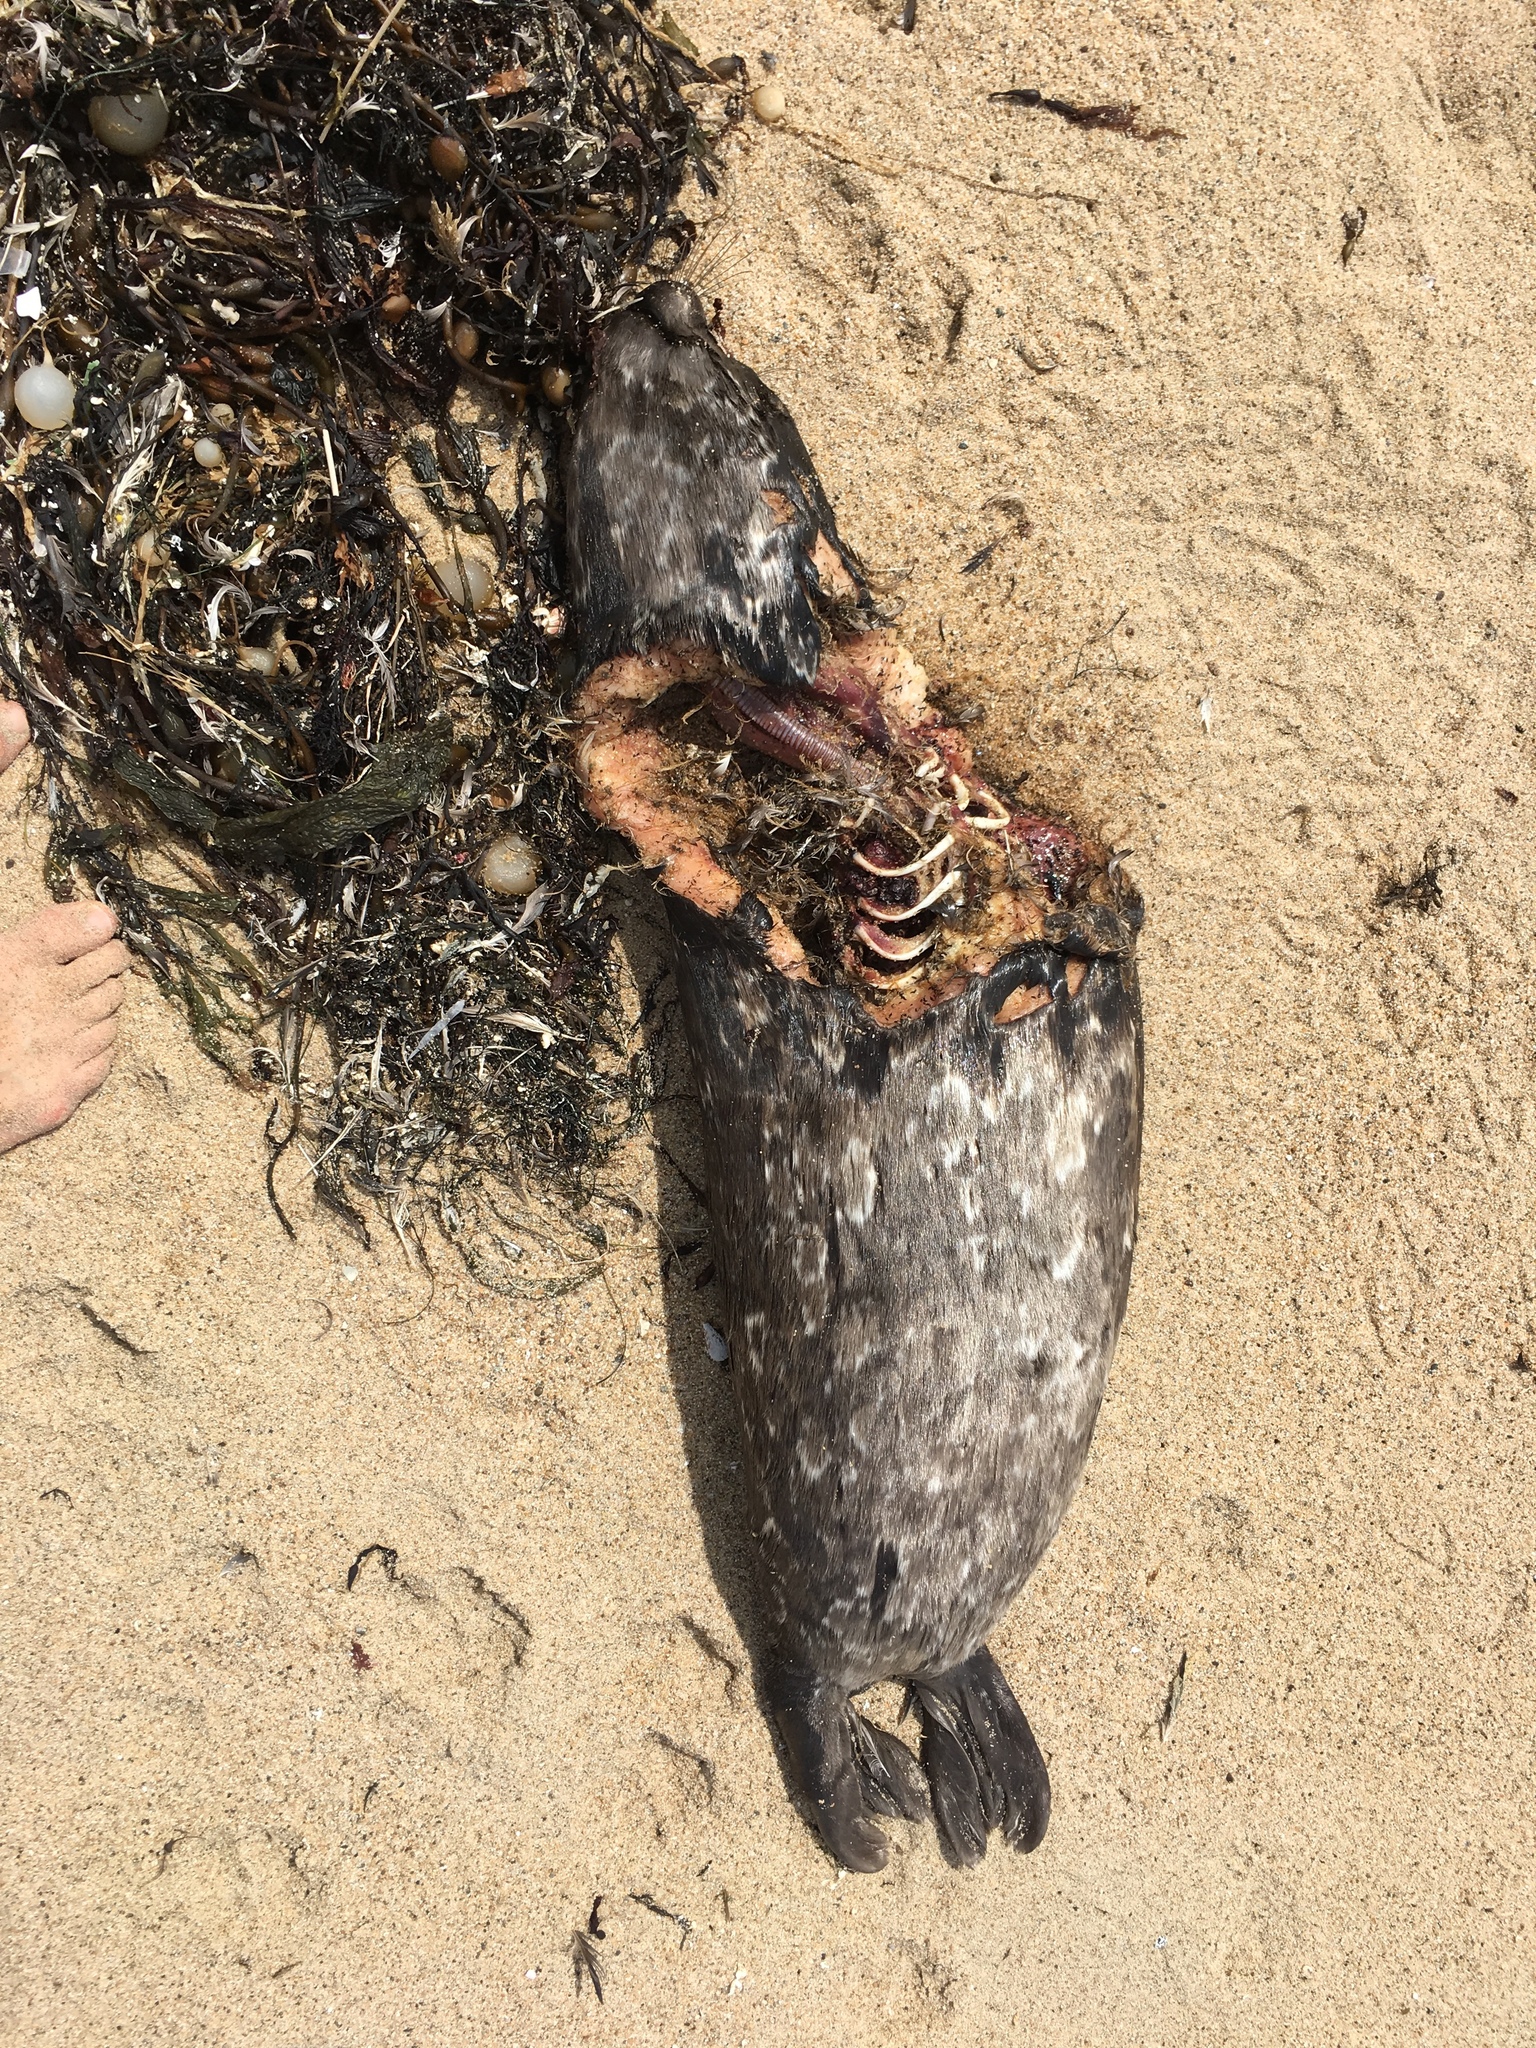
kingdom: Animalia
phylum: Chordata
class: Mammalia
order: Carnivora
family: Phocidae
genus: Phoca
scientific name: Phoca vitulina
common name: Harbor seal
